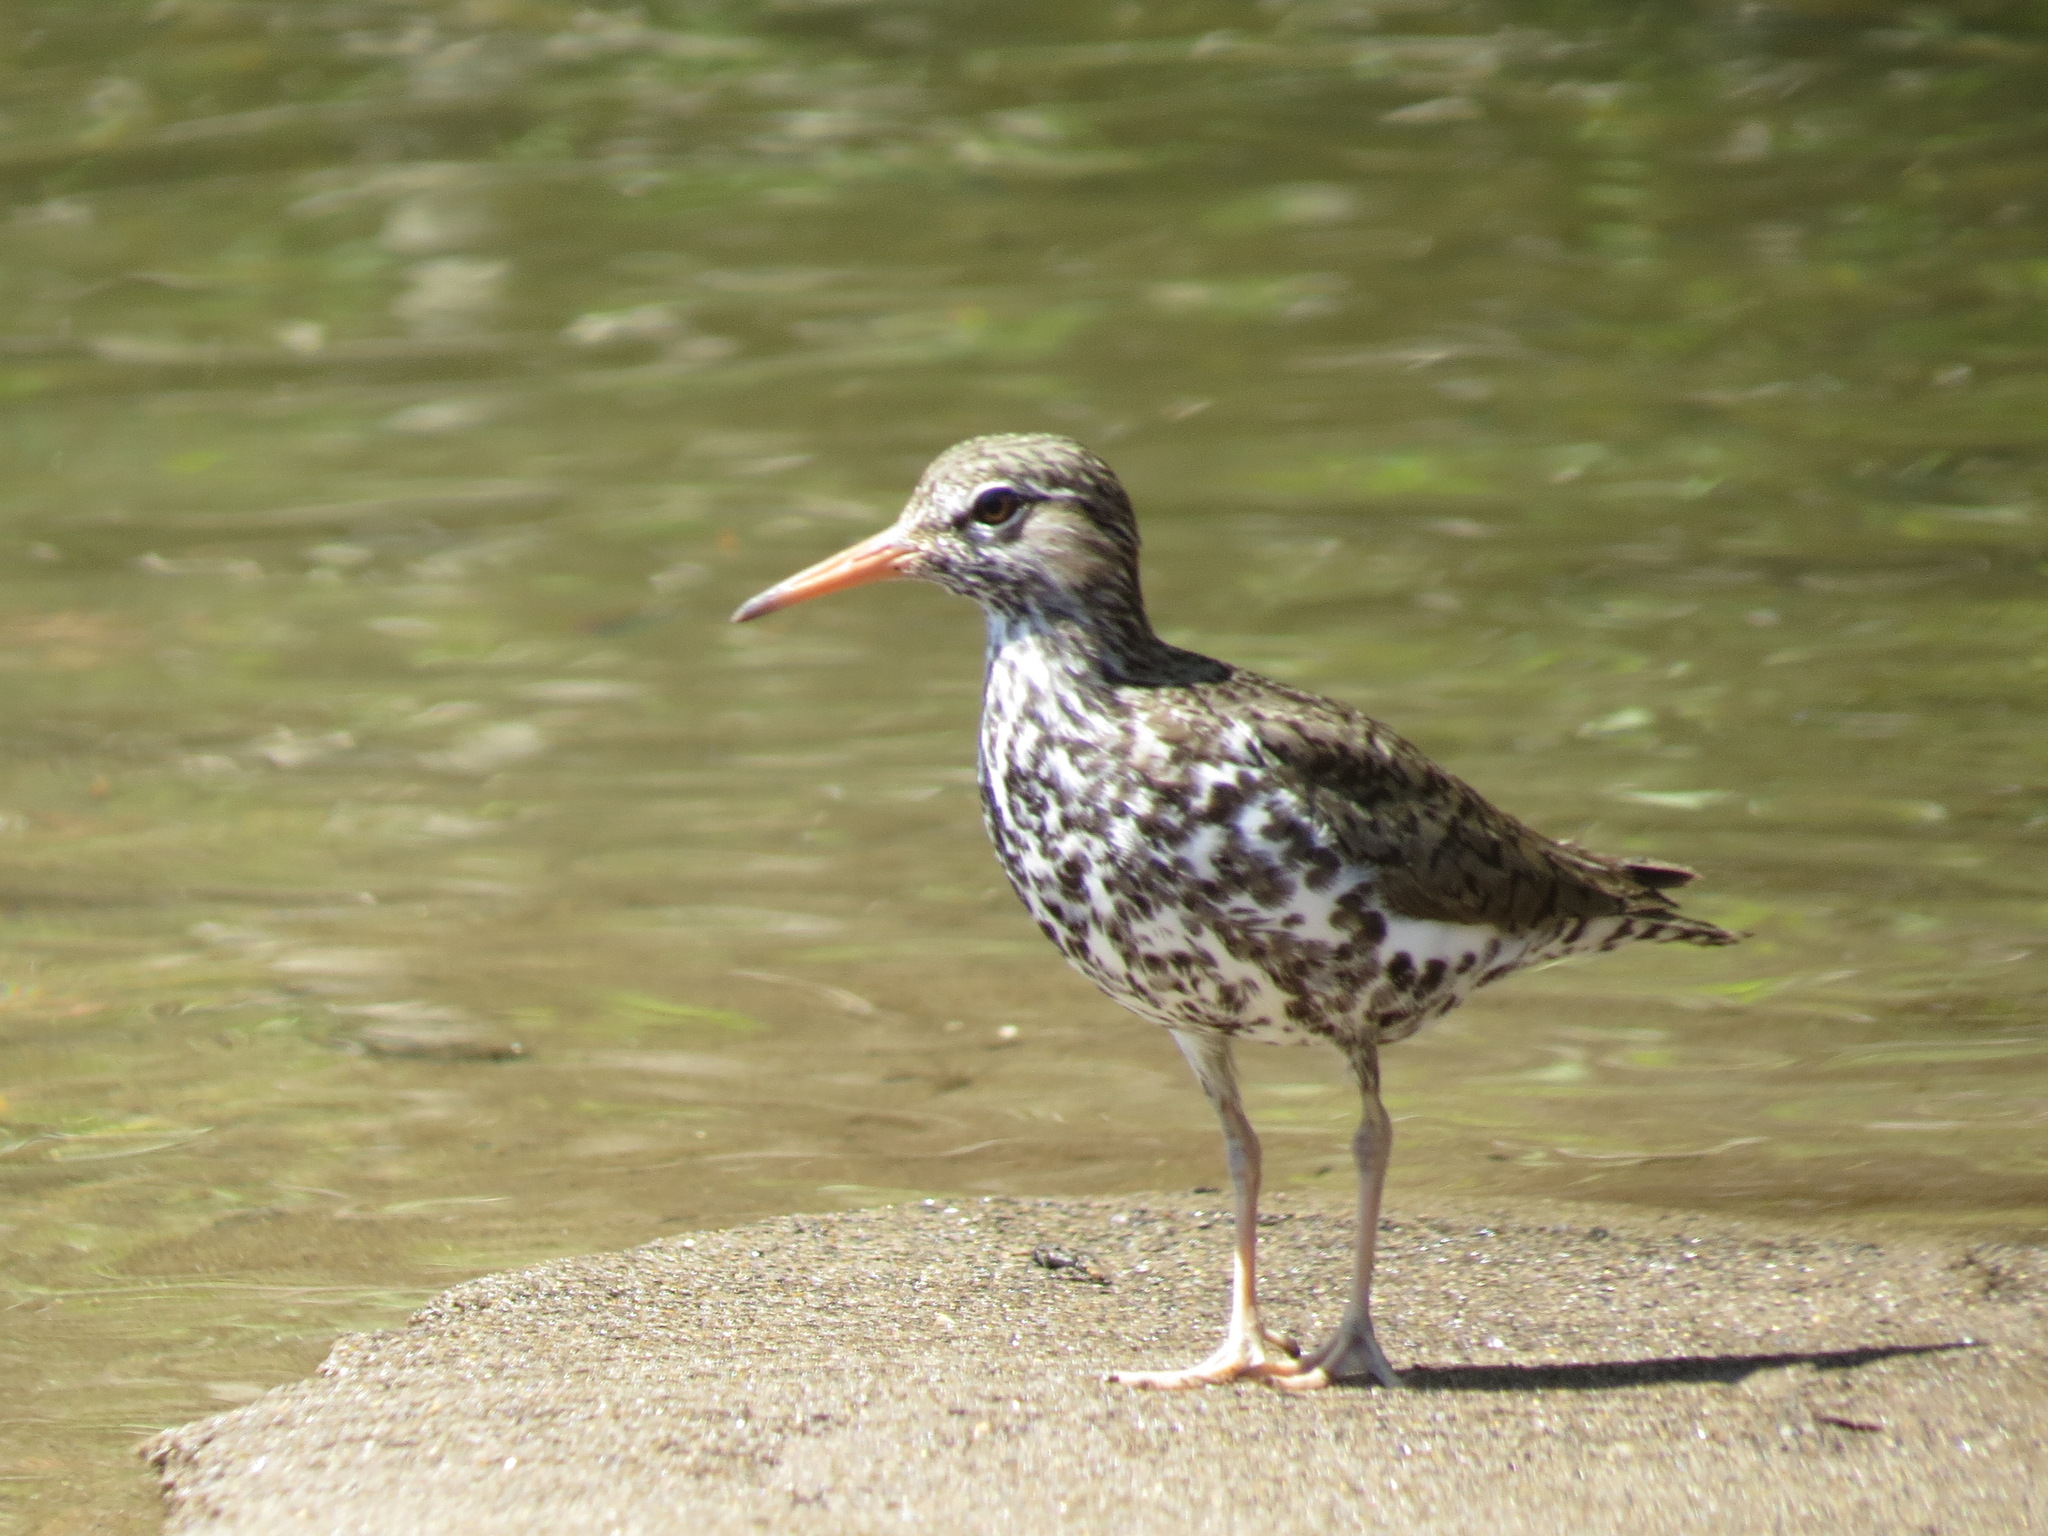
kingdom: Animalia
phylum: Chordata
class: Aves
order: Charadriiformes
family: Scolopacidae
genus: Actitis
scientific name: Actitis macularius
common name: Spotted sandpiper
